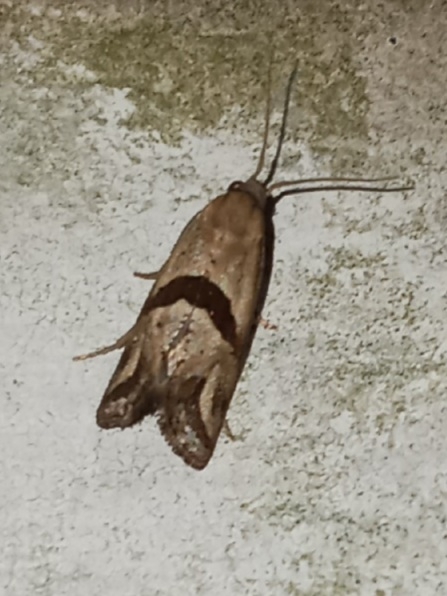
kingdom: Animalia
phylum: Arthropoda
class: Insecta
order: Lepidoptera
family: Tortricidae
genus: Eugnosta
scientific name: Eugnosta sartana
